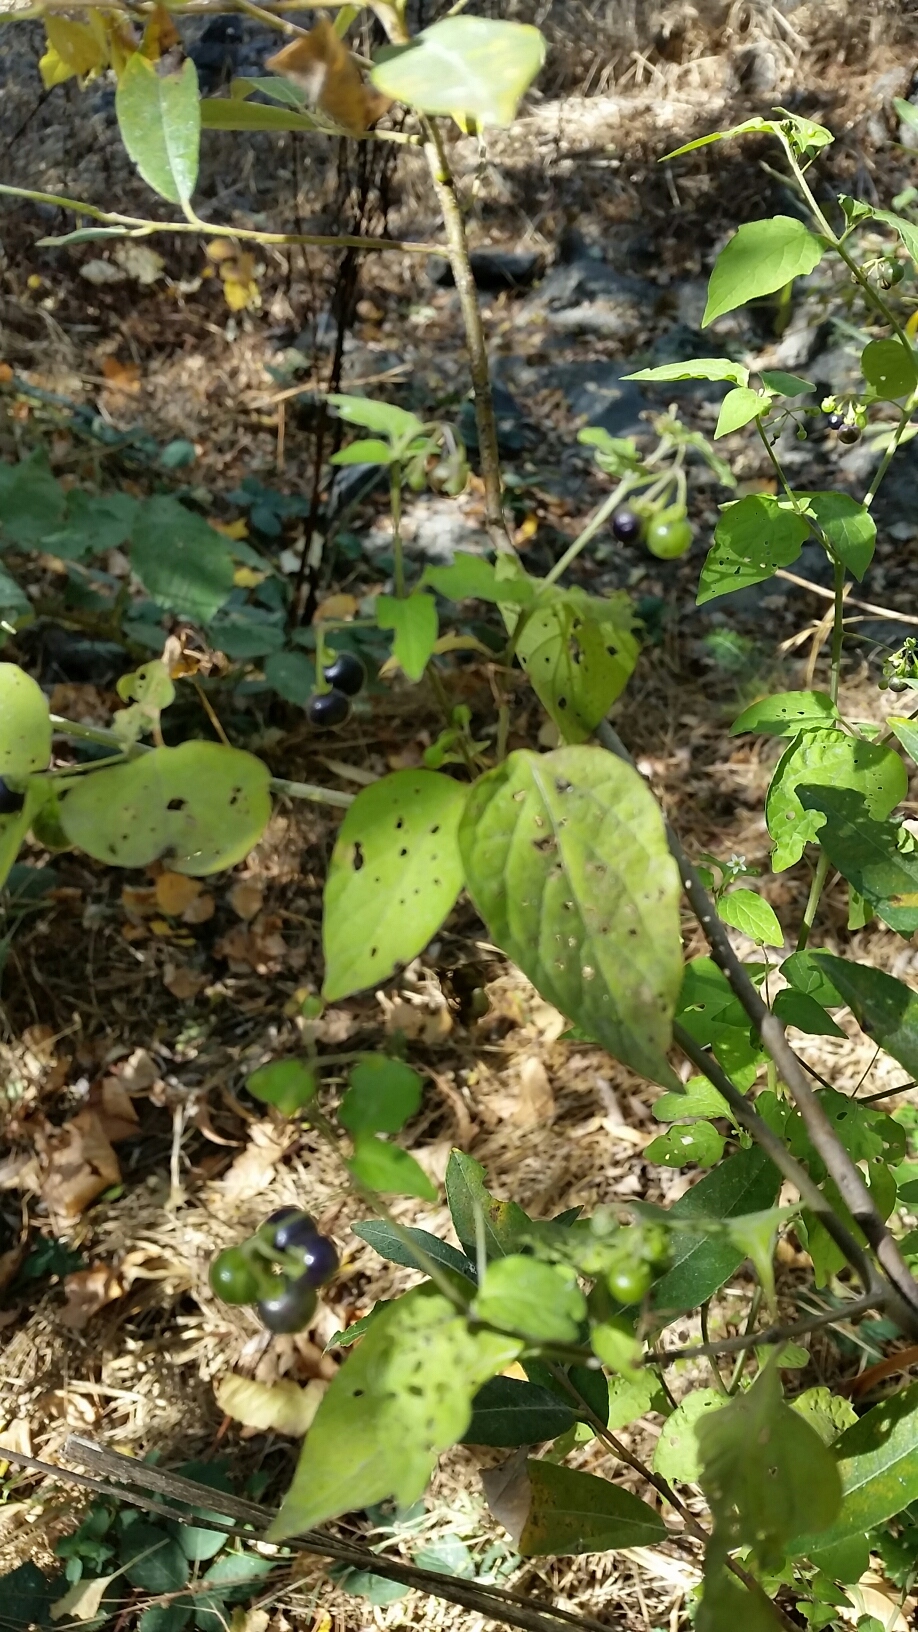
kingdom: Plantae
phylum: Tracheophyta
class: Magnoliopsida
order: Solanales
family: Solanaceae
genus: Solanum
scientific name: Solanum americanum
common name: American black nightshade
